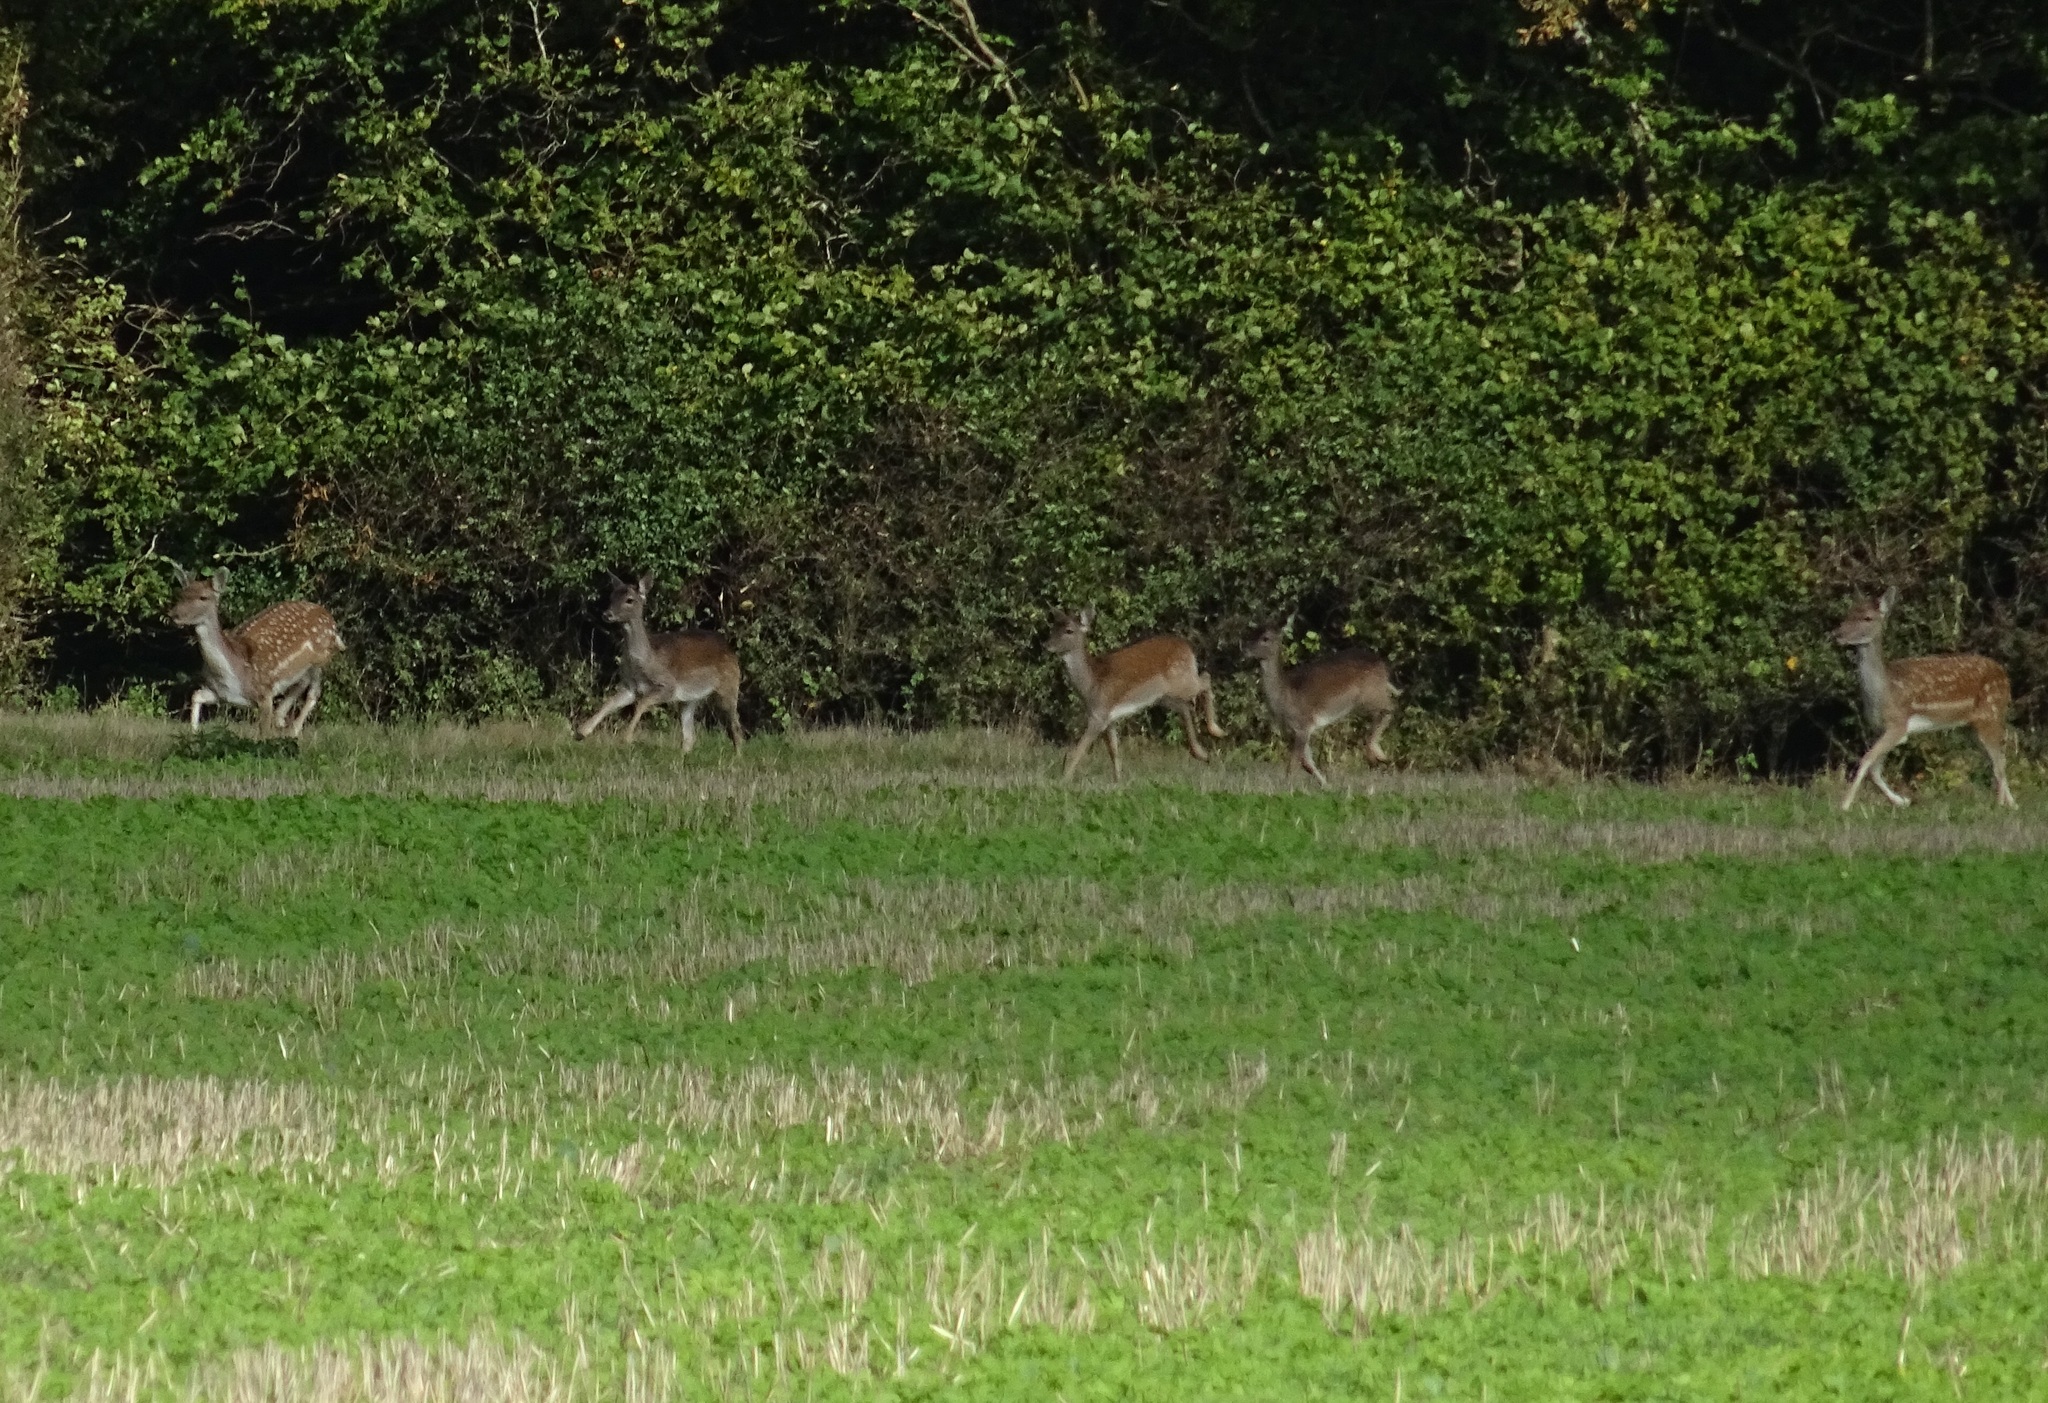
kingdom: Animalia
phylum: Chordata
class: Mammalia
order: Artiodactyla
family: Cervidae
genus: Dama
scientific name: Dama dama
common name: Fallow deer
